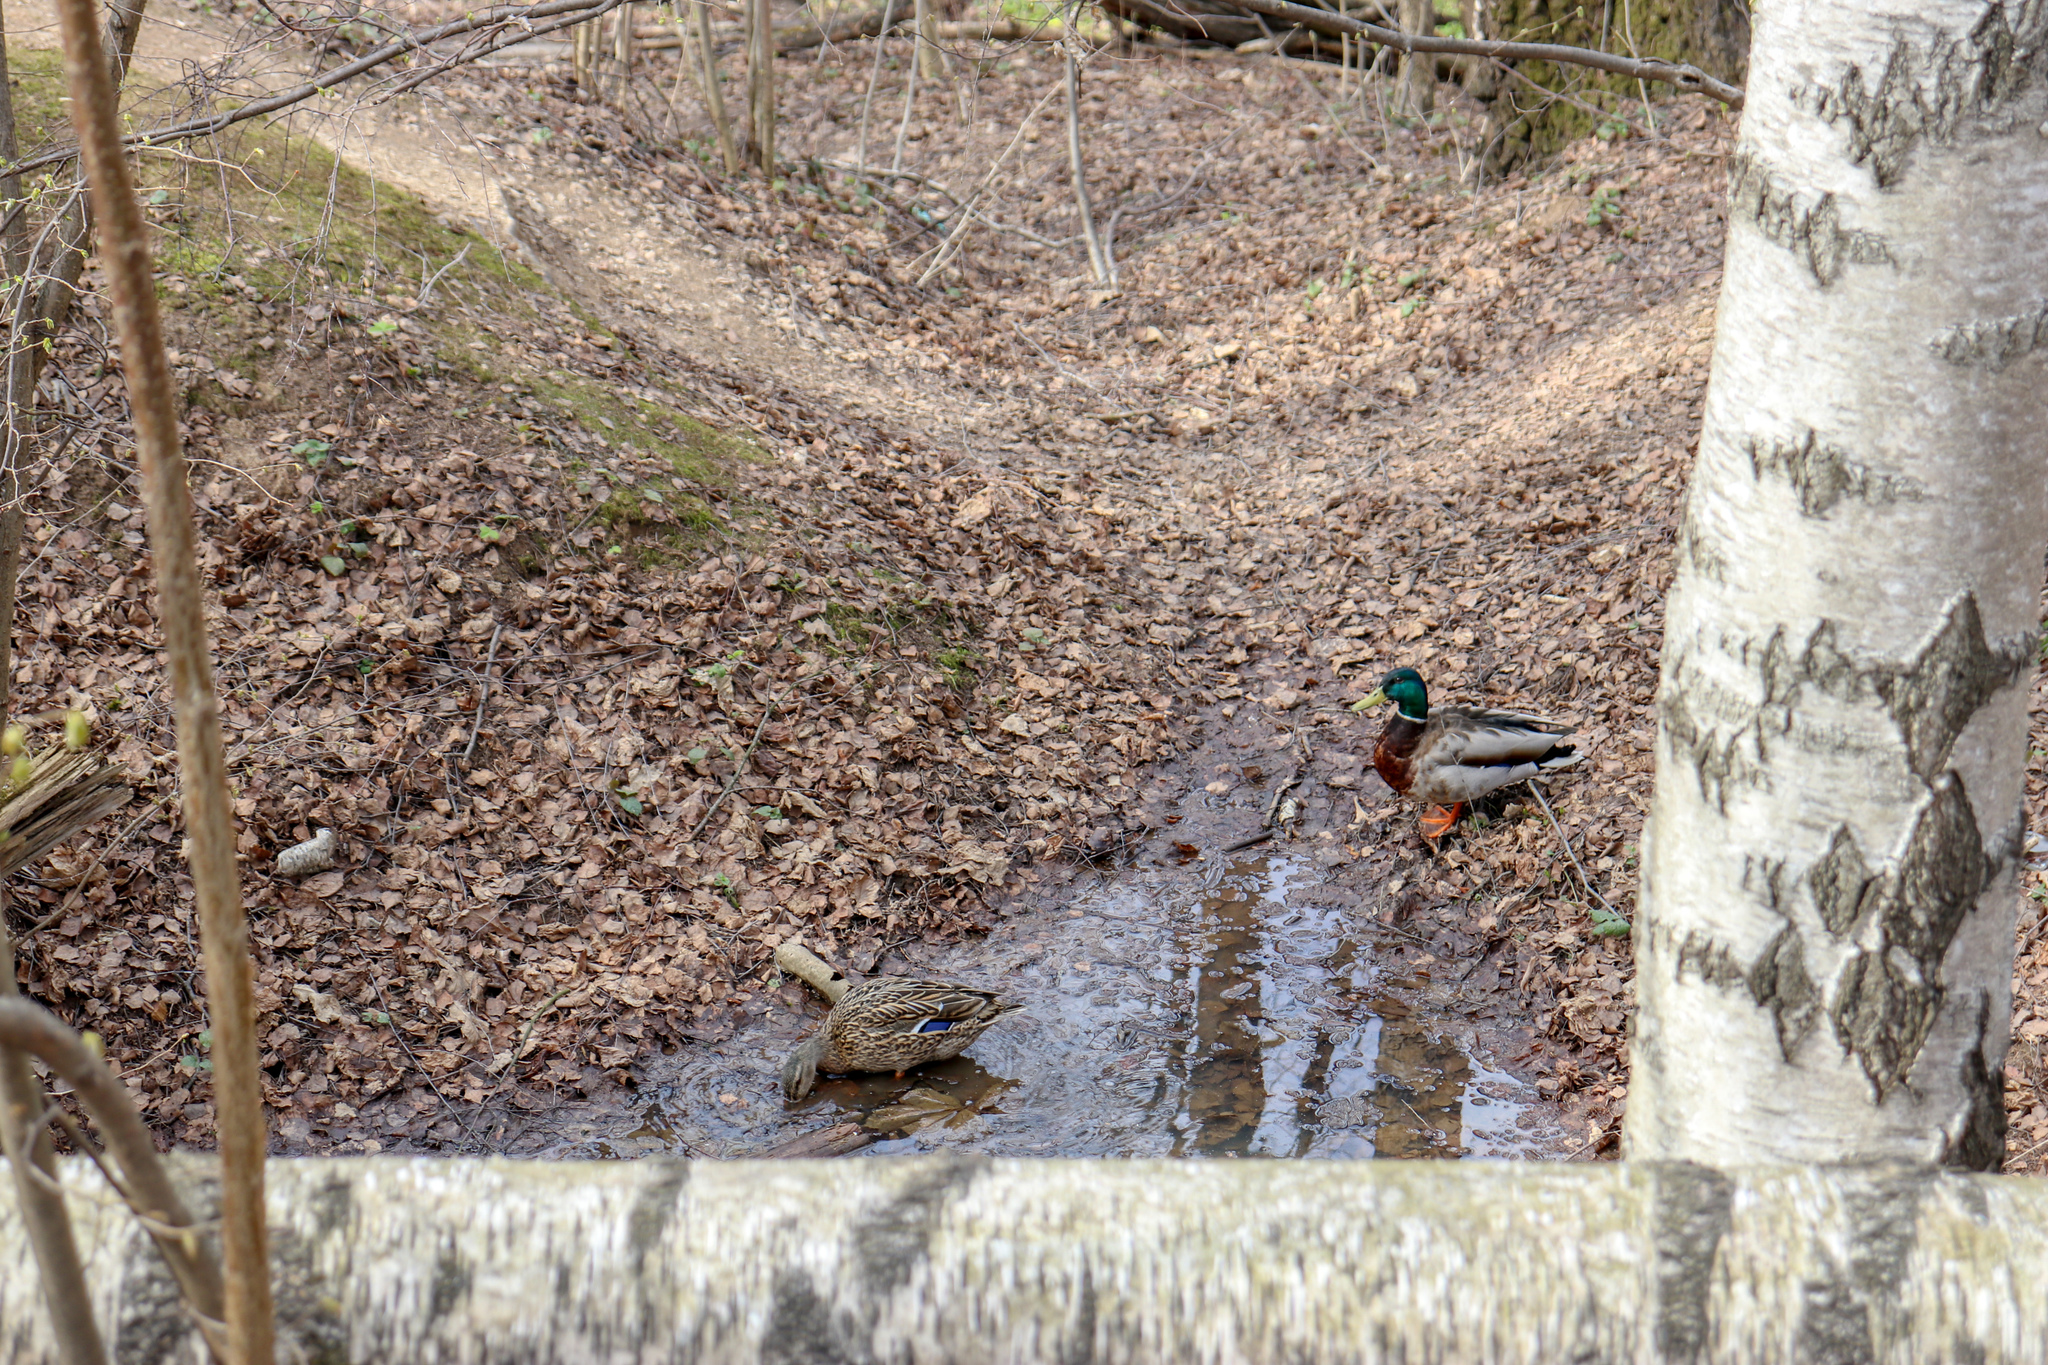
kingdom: Animalia
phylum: Chordata
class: Aves
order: Anseriformes
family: Anatidae
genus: Anas
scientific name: Anas platyrhynchos
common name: Mallard
